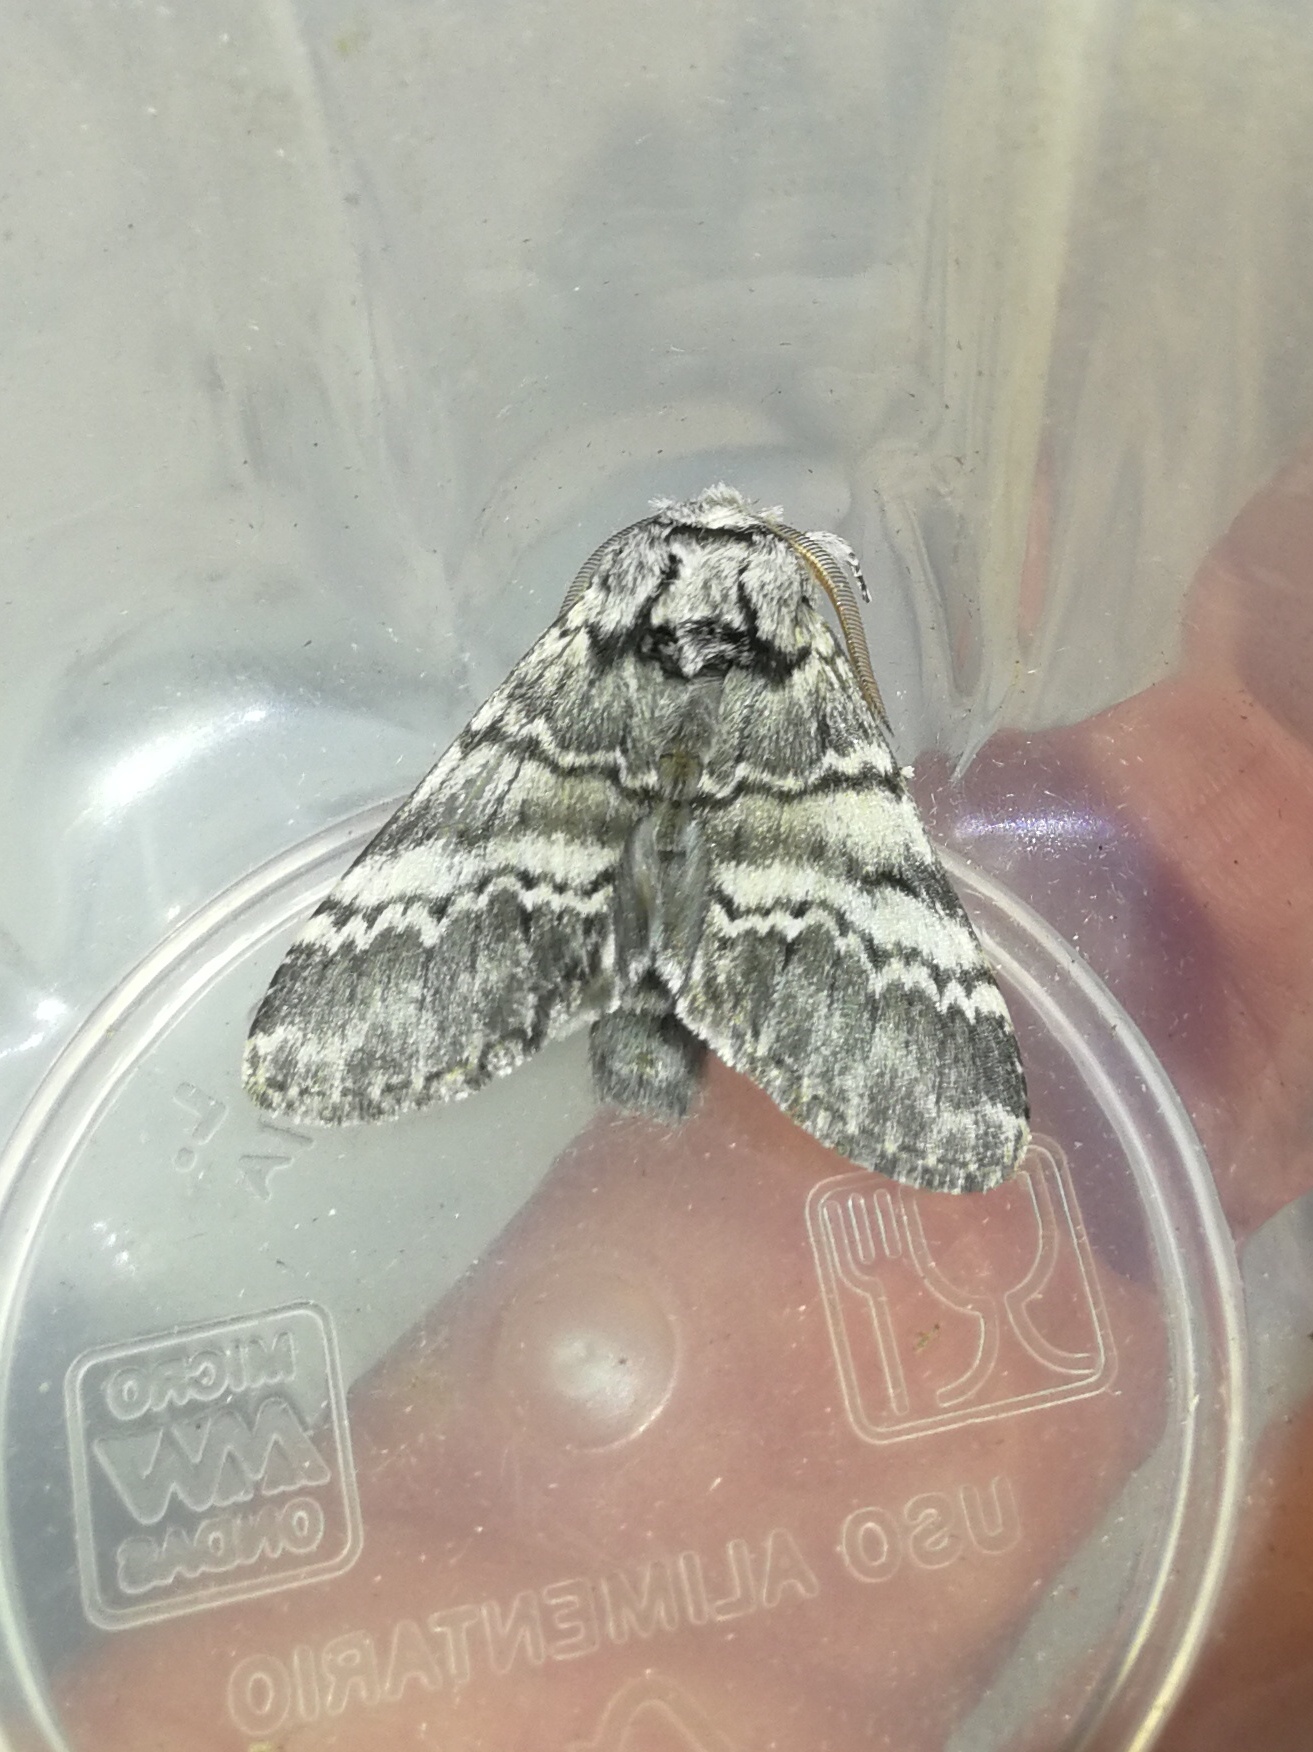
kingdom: Animalia
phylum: Arthropoda
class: Insecta
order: Lepidoptera
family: Notodontidae
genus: Drymonia
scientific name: Drymonia ruficornis
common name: Lunar marbled brown
